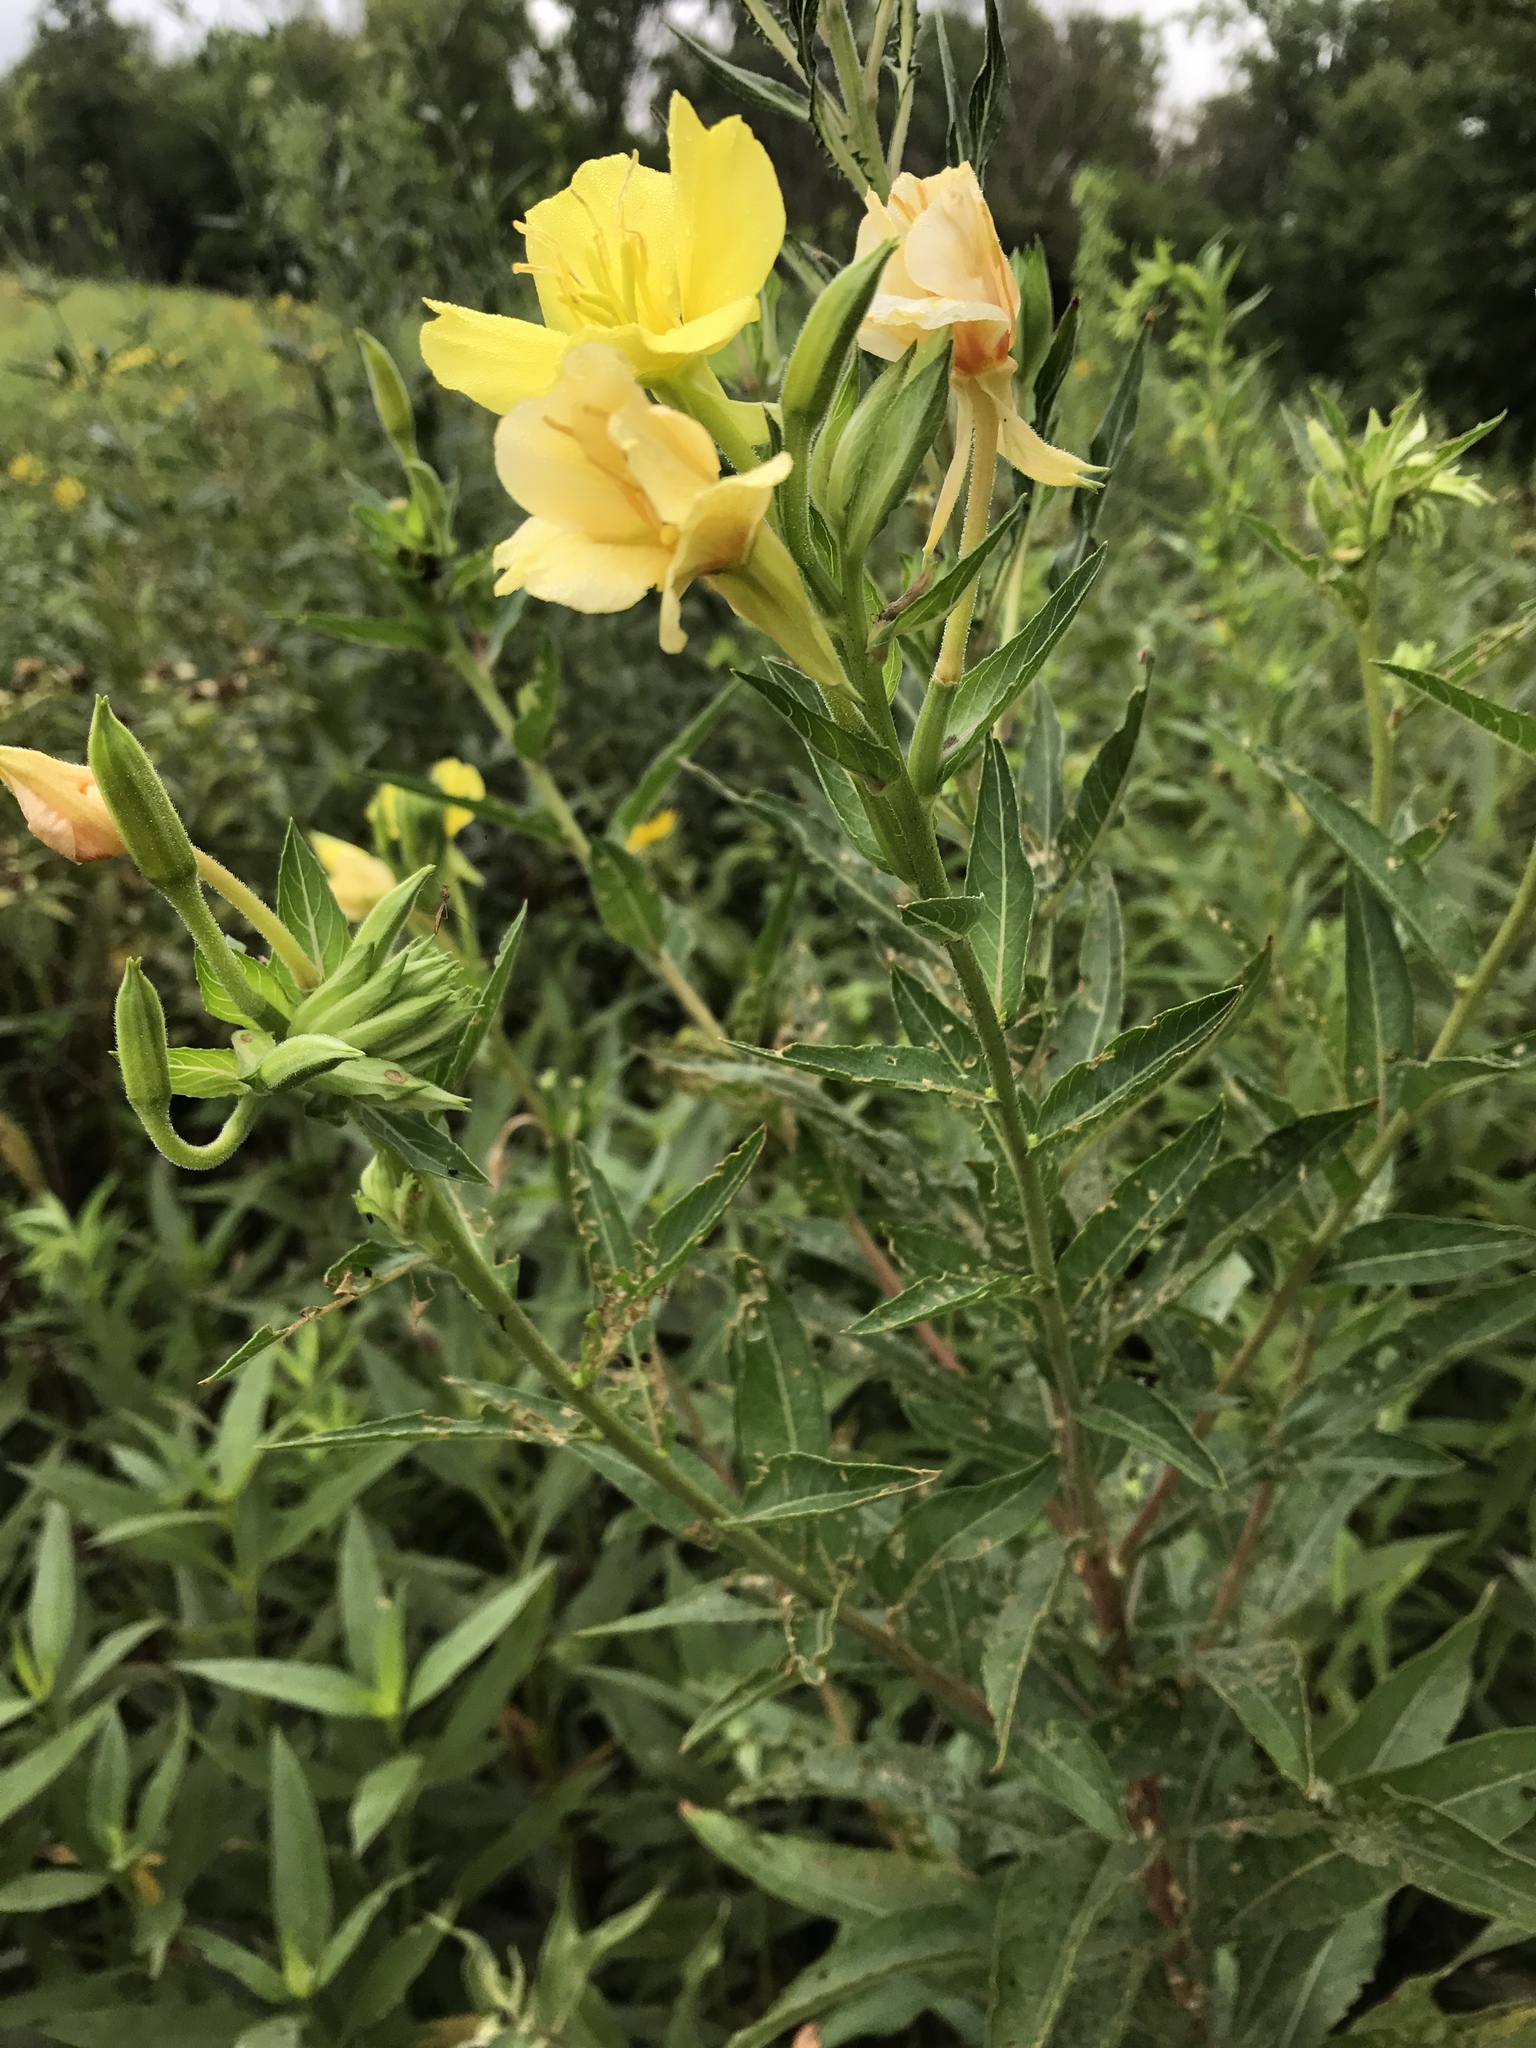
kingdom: Plantae
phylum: Tracheophyta
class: Magnoliopsida
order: Myrtales
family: Onagraceae
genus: Oenothera
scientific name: Oenothera biennis
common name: Common evening-primrose
